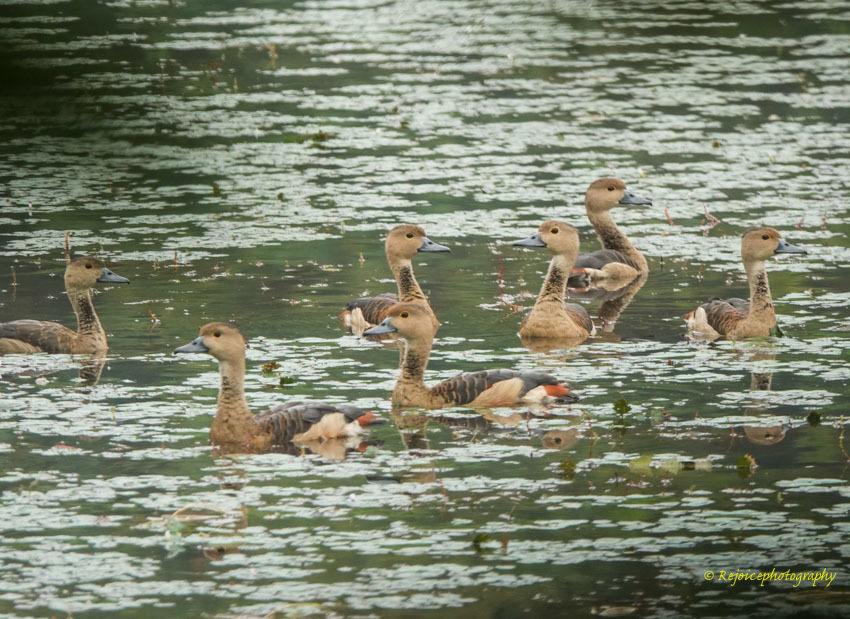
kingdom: Animalia
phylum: Chordata
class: Aves
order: Anseriformes
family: Anatidae
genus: Dendrocygna
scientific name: Dendrocygna javanica
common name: Lesser whistling-duck
